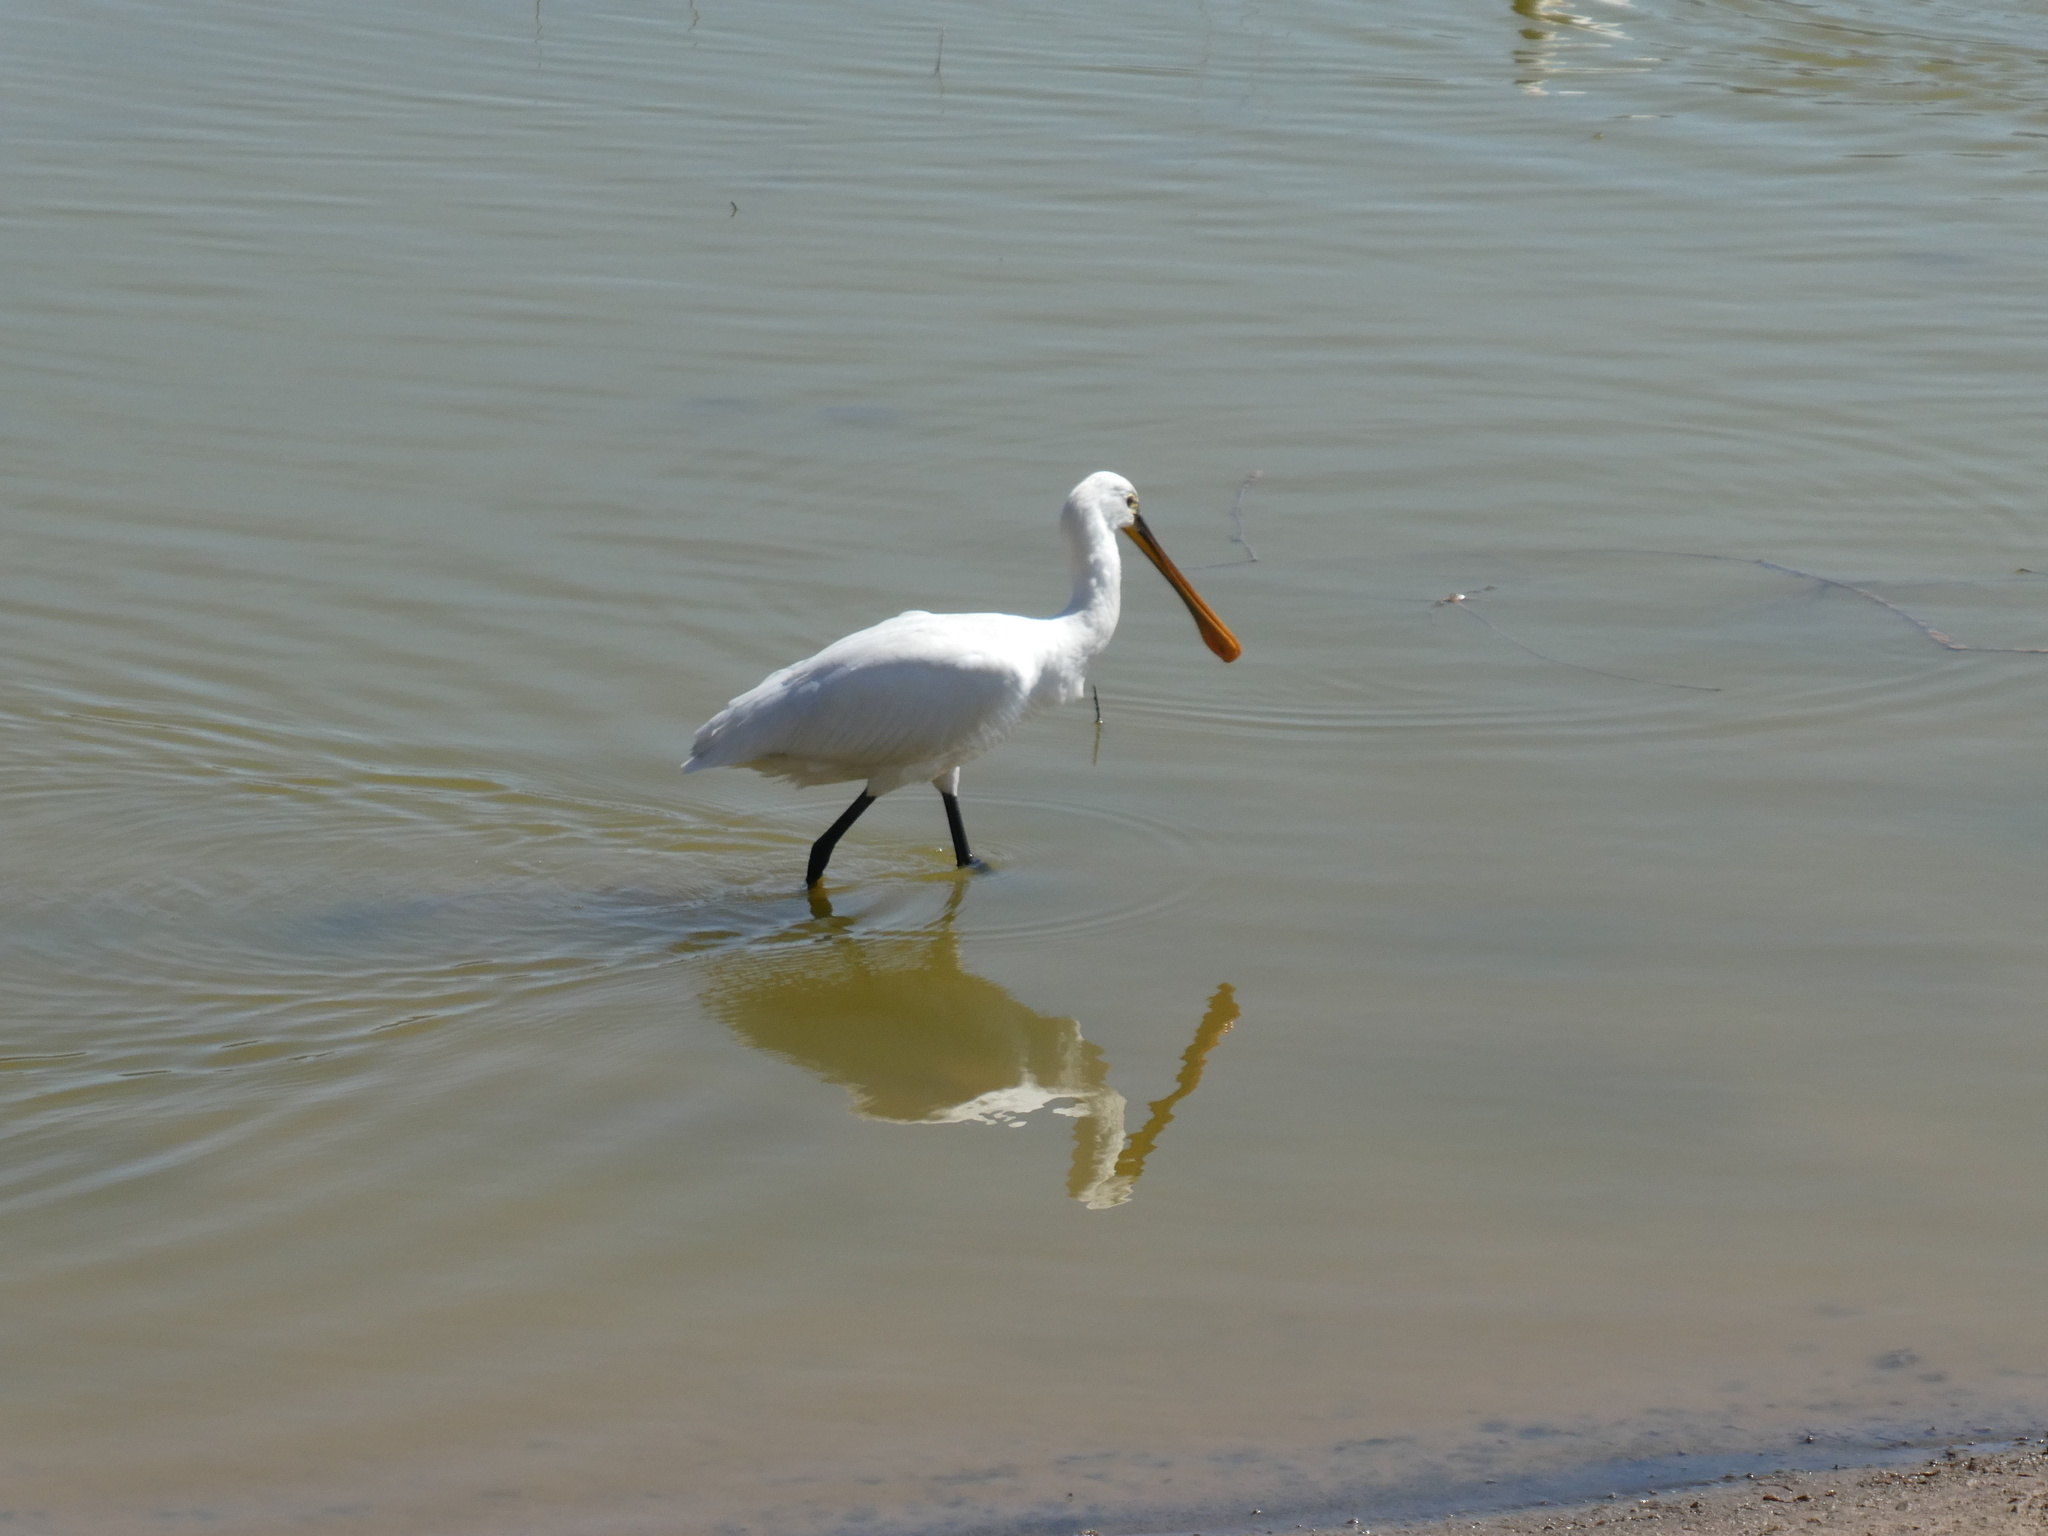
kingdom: Animalia
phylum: Chordata
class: Aves
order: Pelecaniformes
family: Threskiornithidae
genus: Platalea
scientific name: Platalea leucorodia
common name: Eurasian spoonbill
